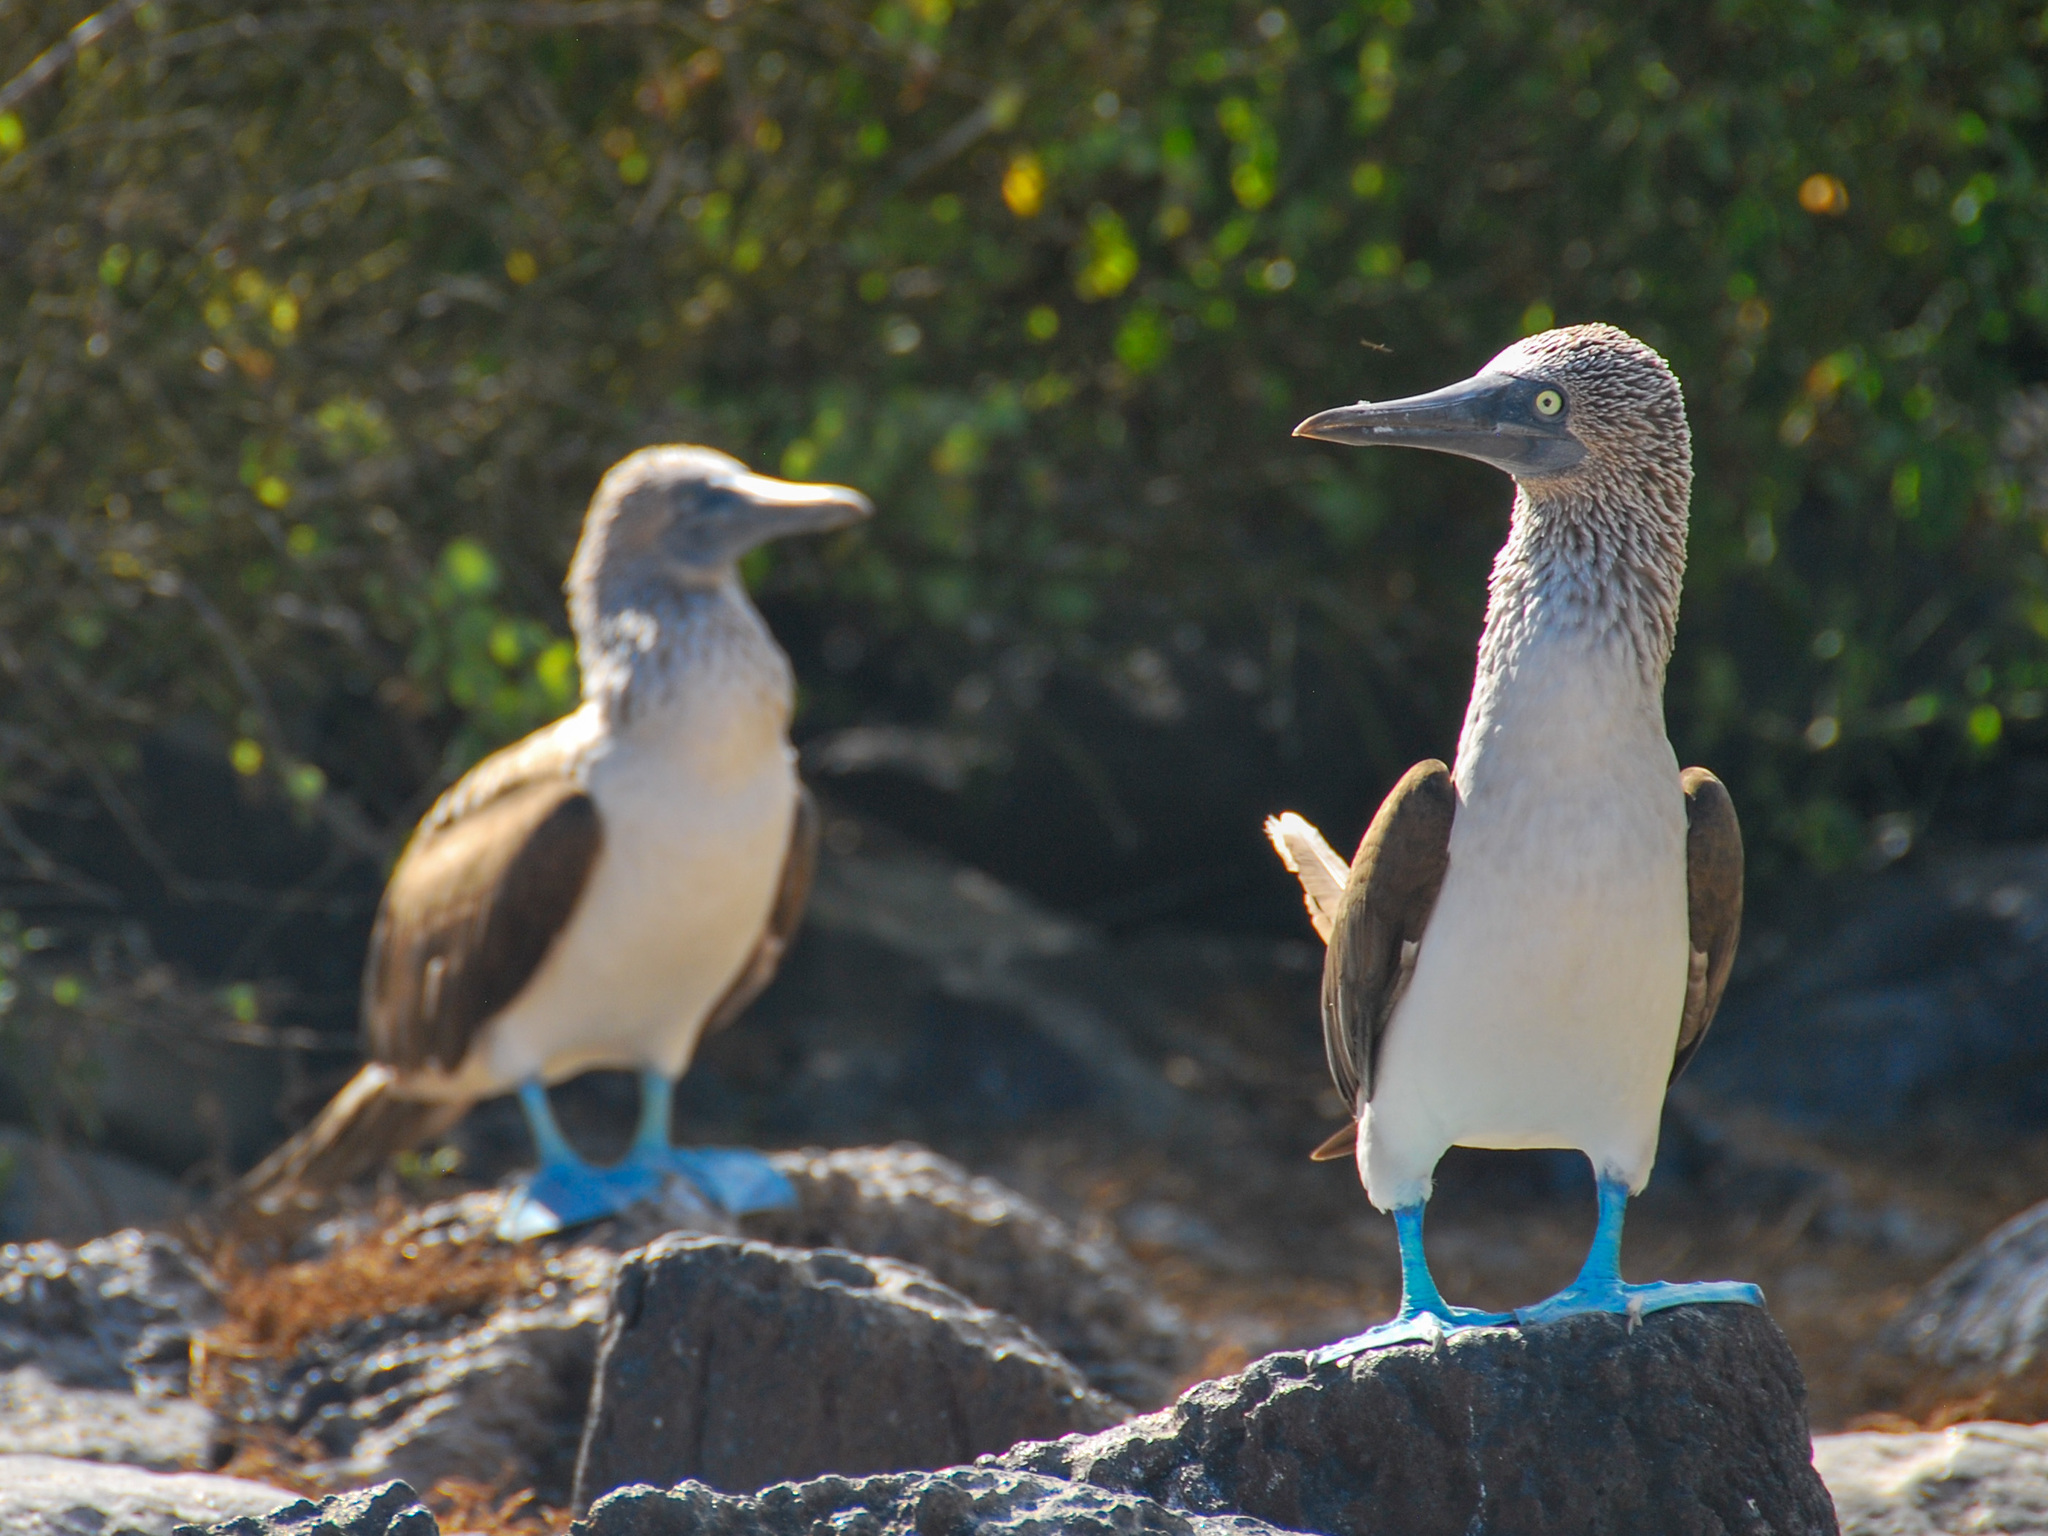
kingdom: Animalia
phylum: Chordata
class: Aves
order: Suliformes
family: Sulidae
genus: Sula
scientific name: Sula nebouxii
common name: Blue-footed booby
